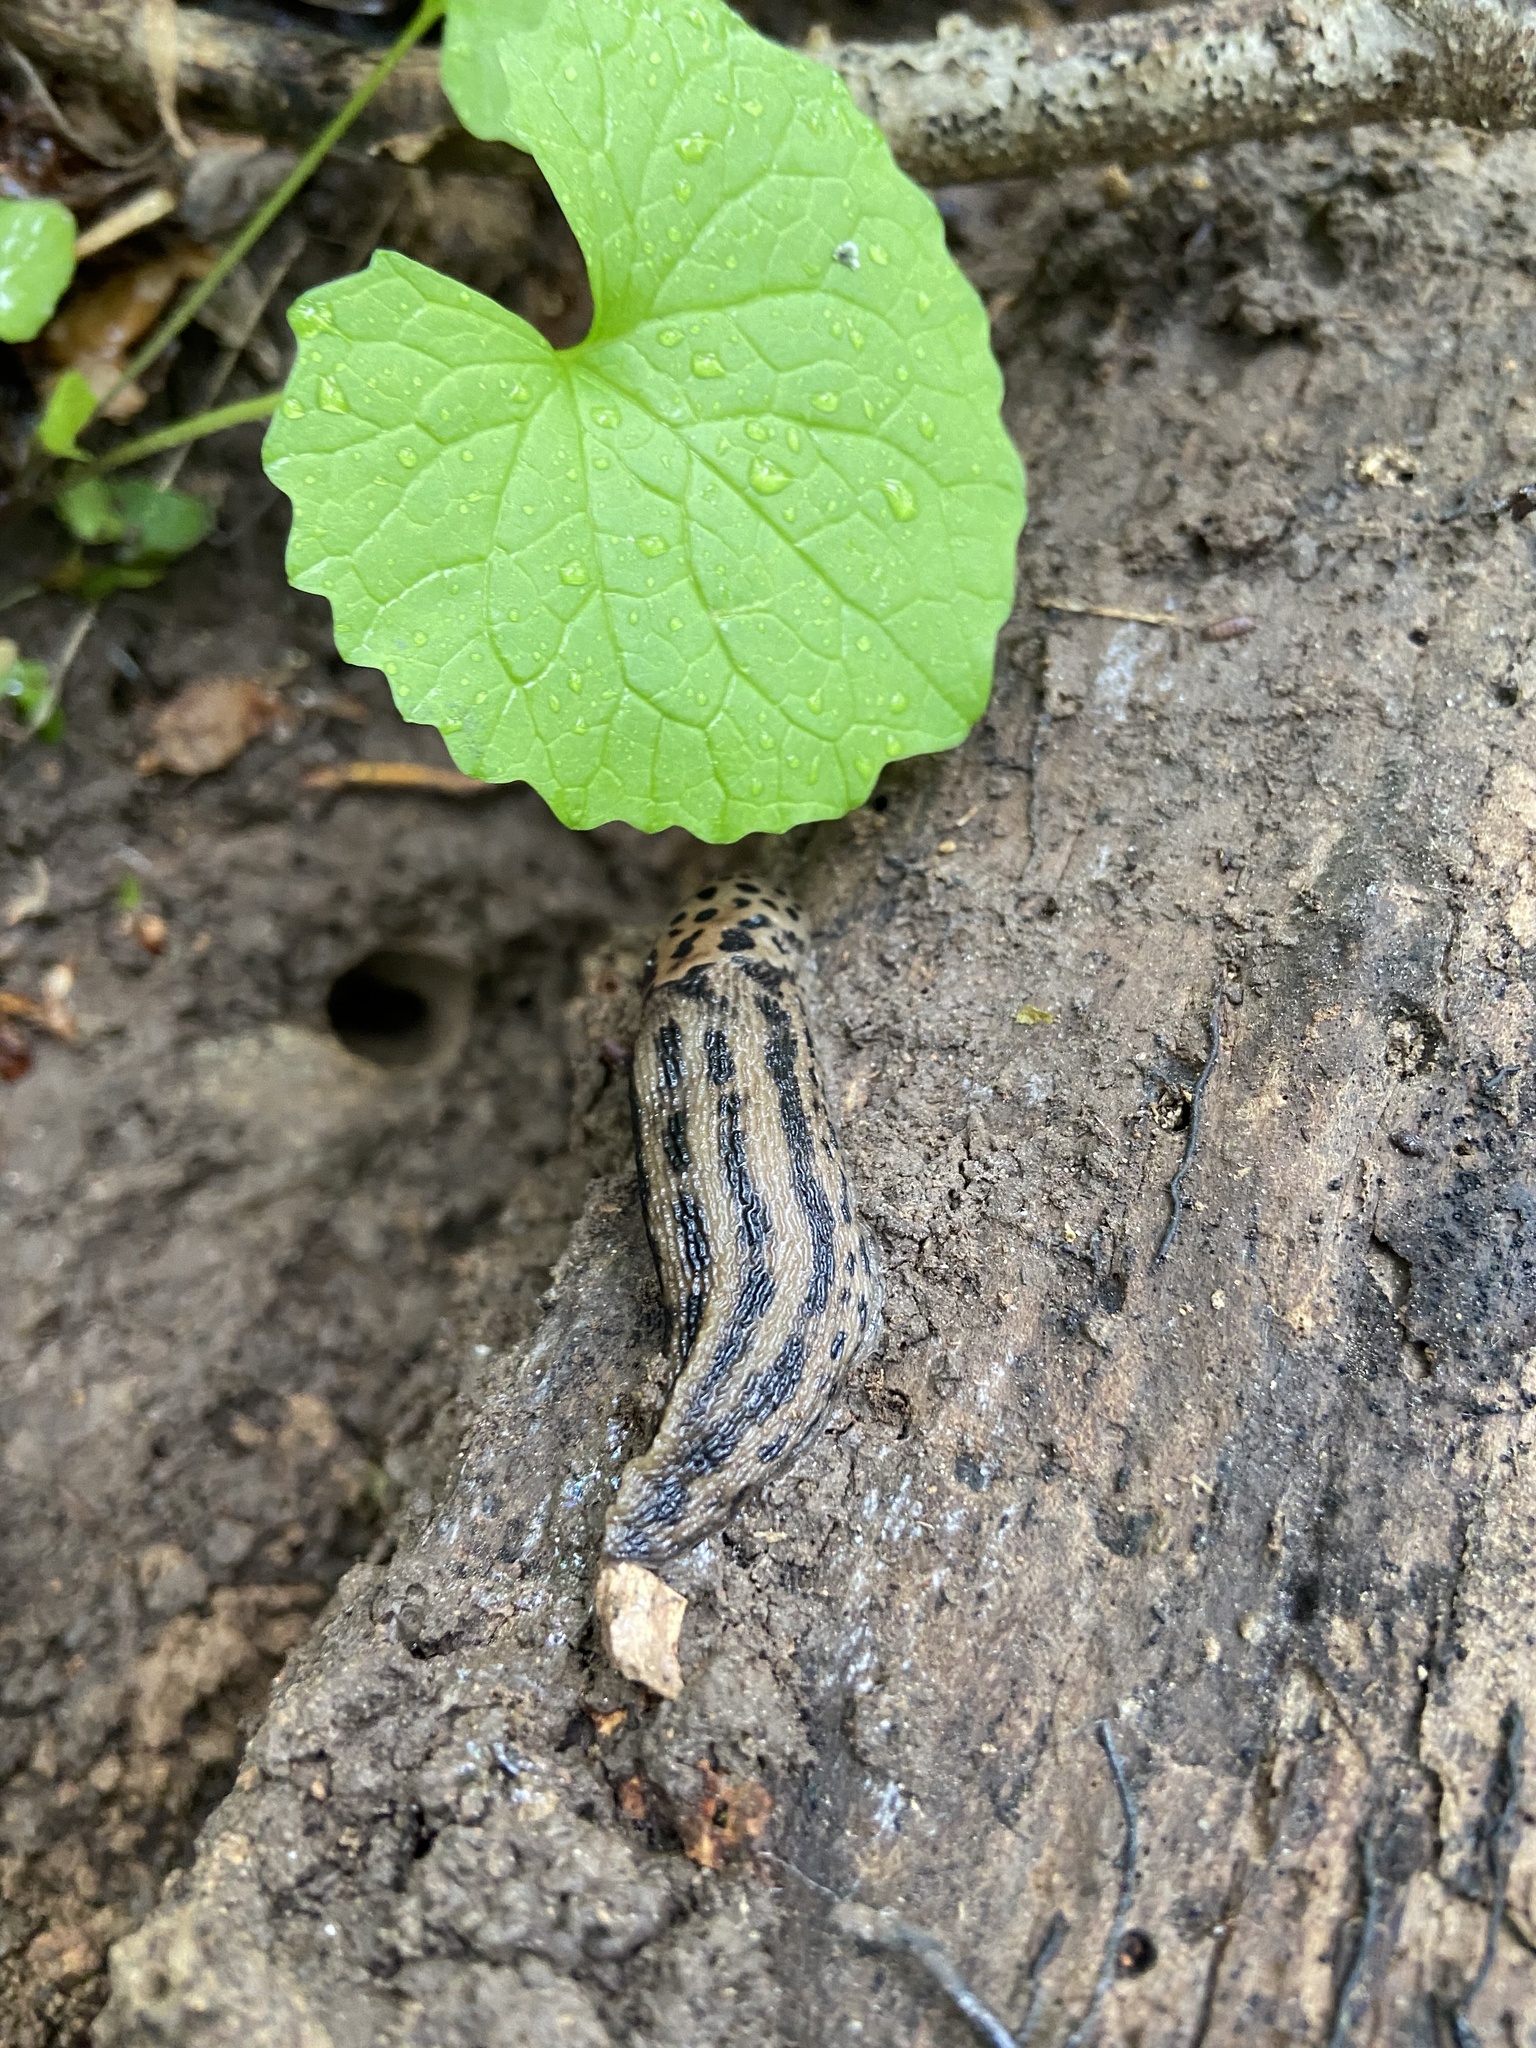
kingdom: Animalia
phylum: Mollusca
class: Gastropoda
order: Stylommatophora
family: Limacidae
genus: Limax
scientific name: Limax maximus
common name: Great grey slug
